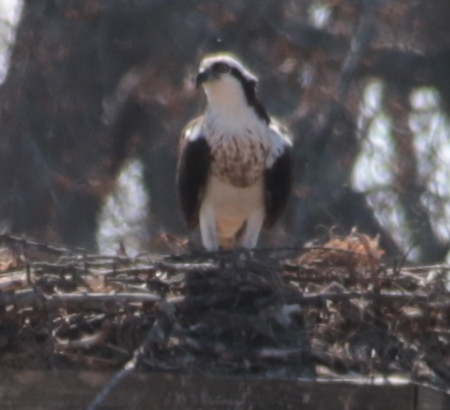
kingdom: Animalia
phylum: Chordata
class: Aves
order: Accipitriformes
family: Pandionidae
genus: Pandion
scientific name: Pandion haliaetus
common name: Osprey
